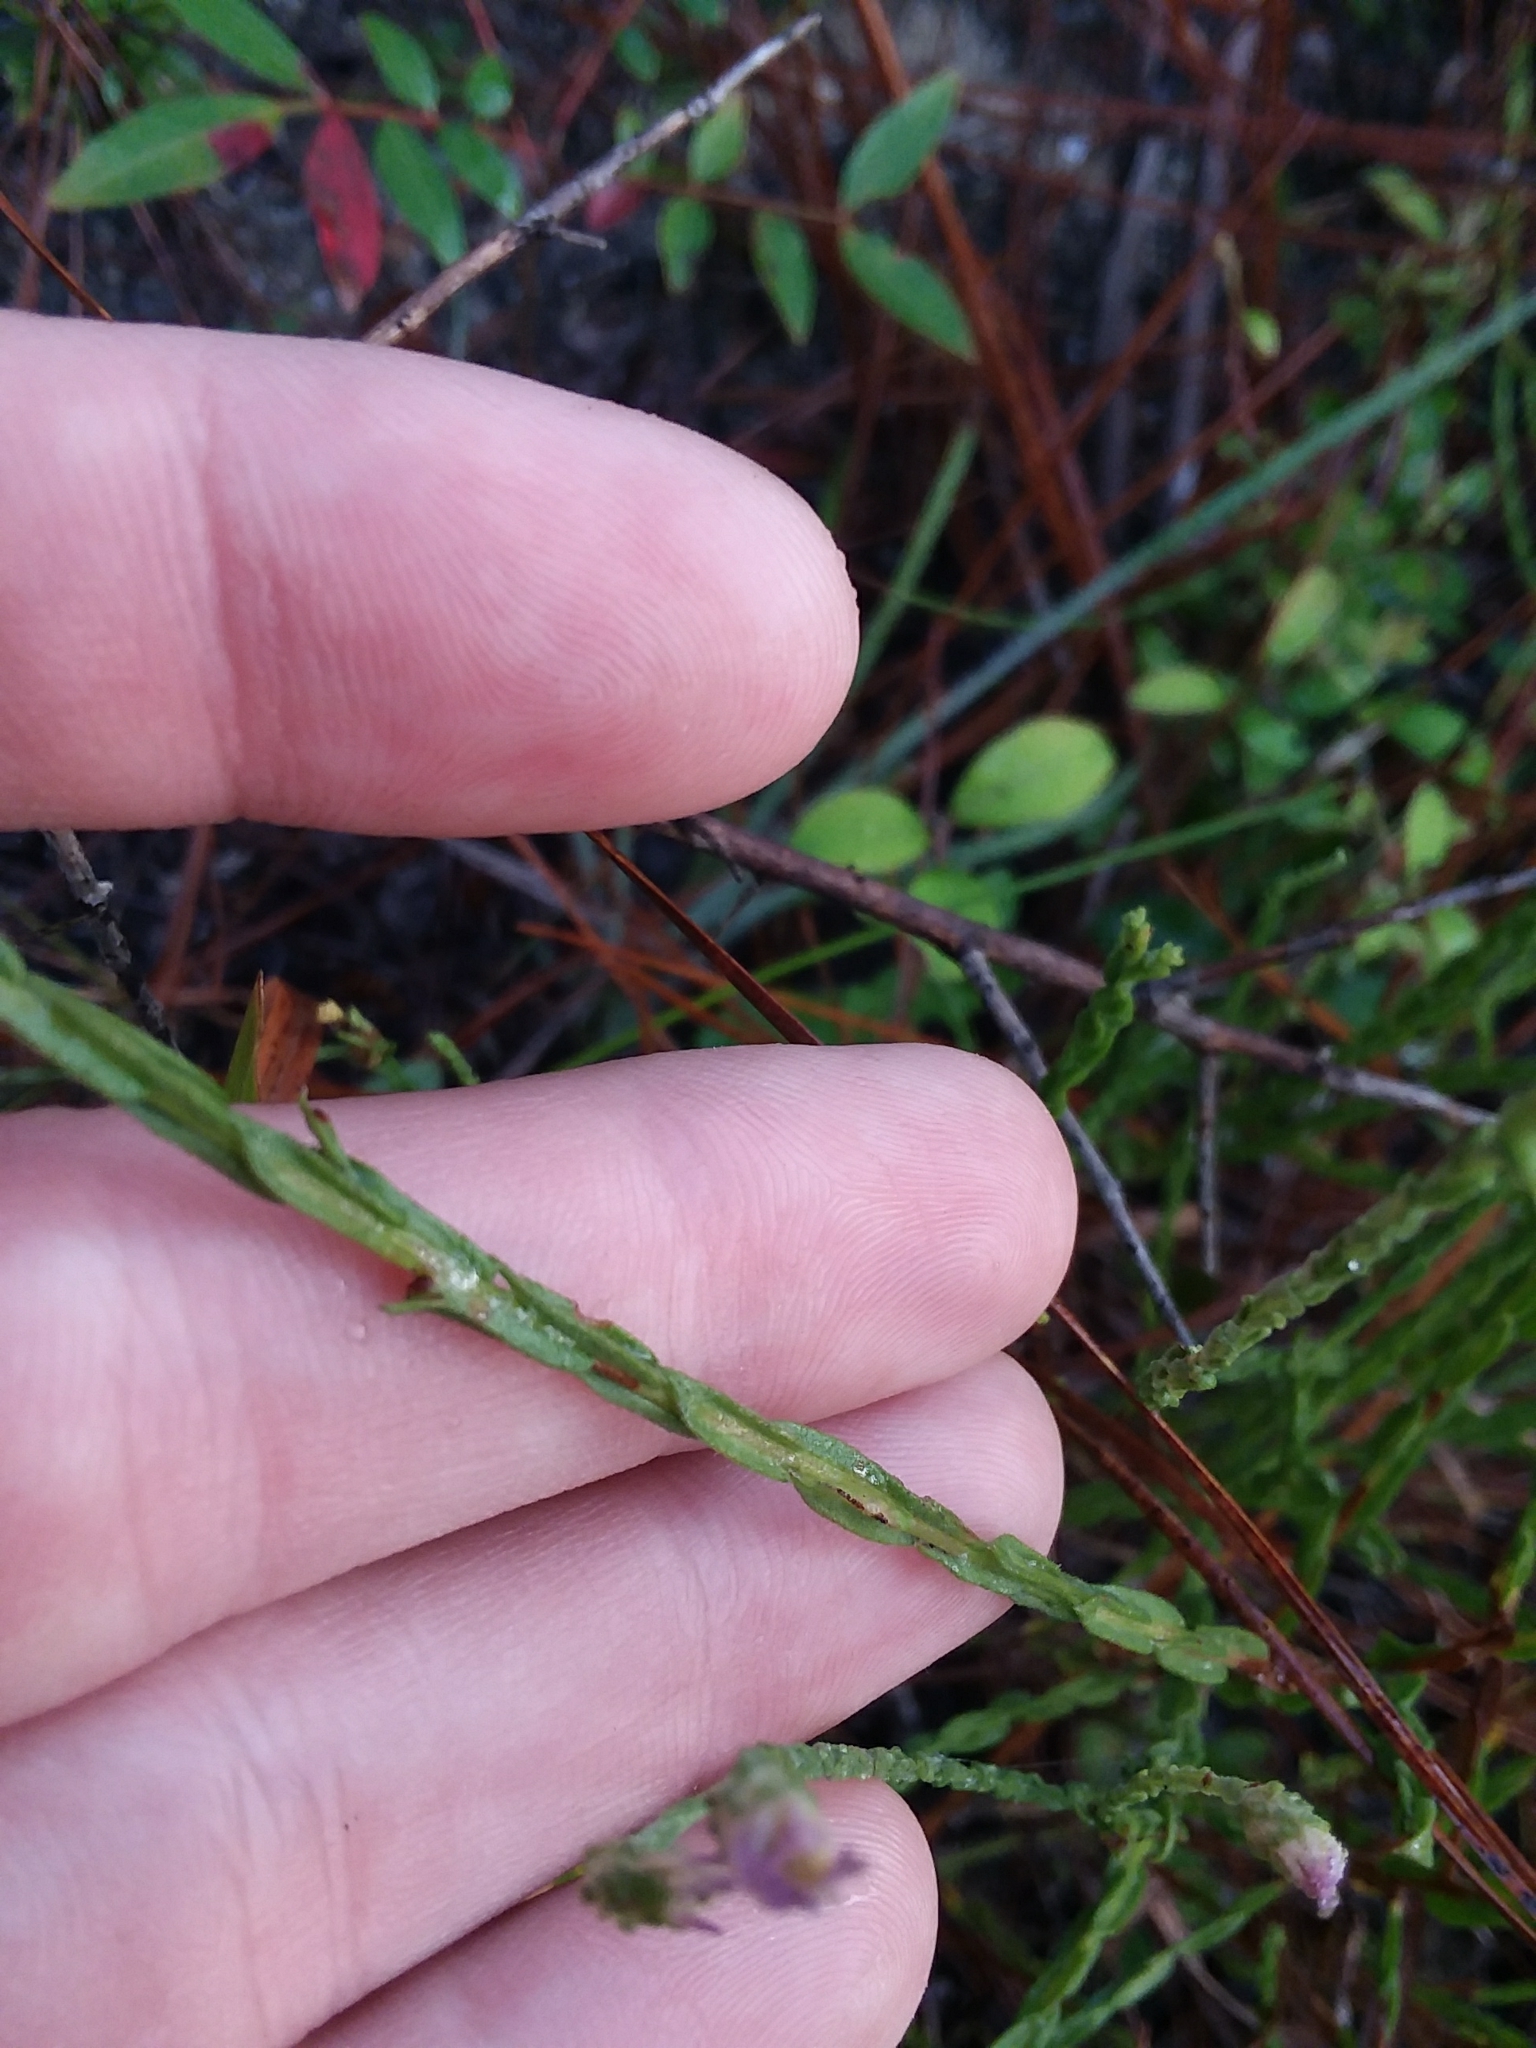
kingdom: Plantae
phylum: Tracheophyta
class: Magnoliopsida
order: Asterales
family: Asteraceae
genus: Symphyotrichum
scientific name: Symphyotrichum adnatum
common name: Scale-leaf aster
